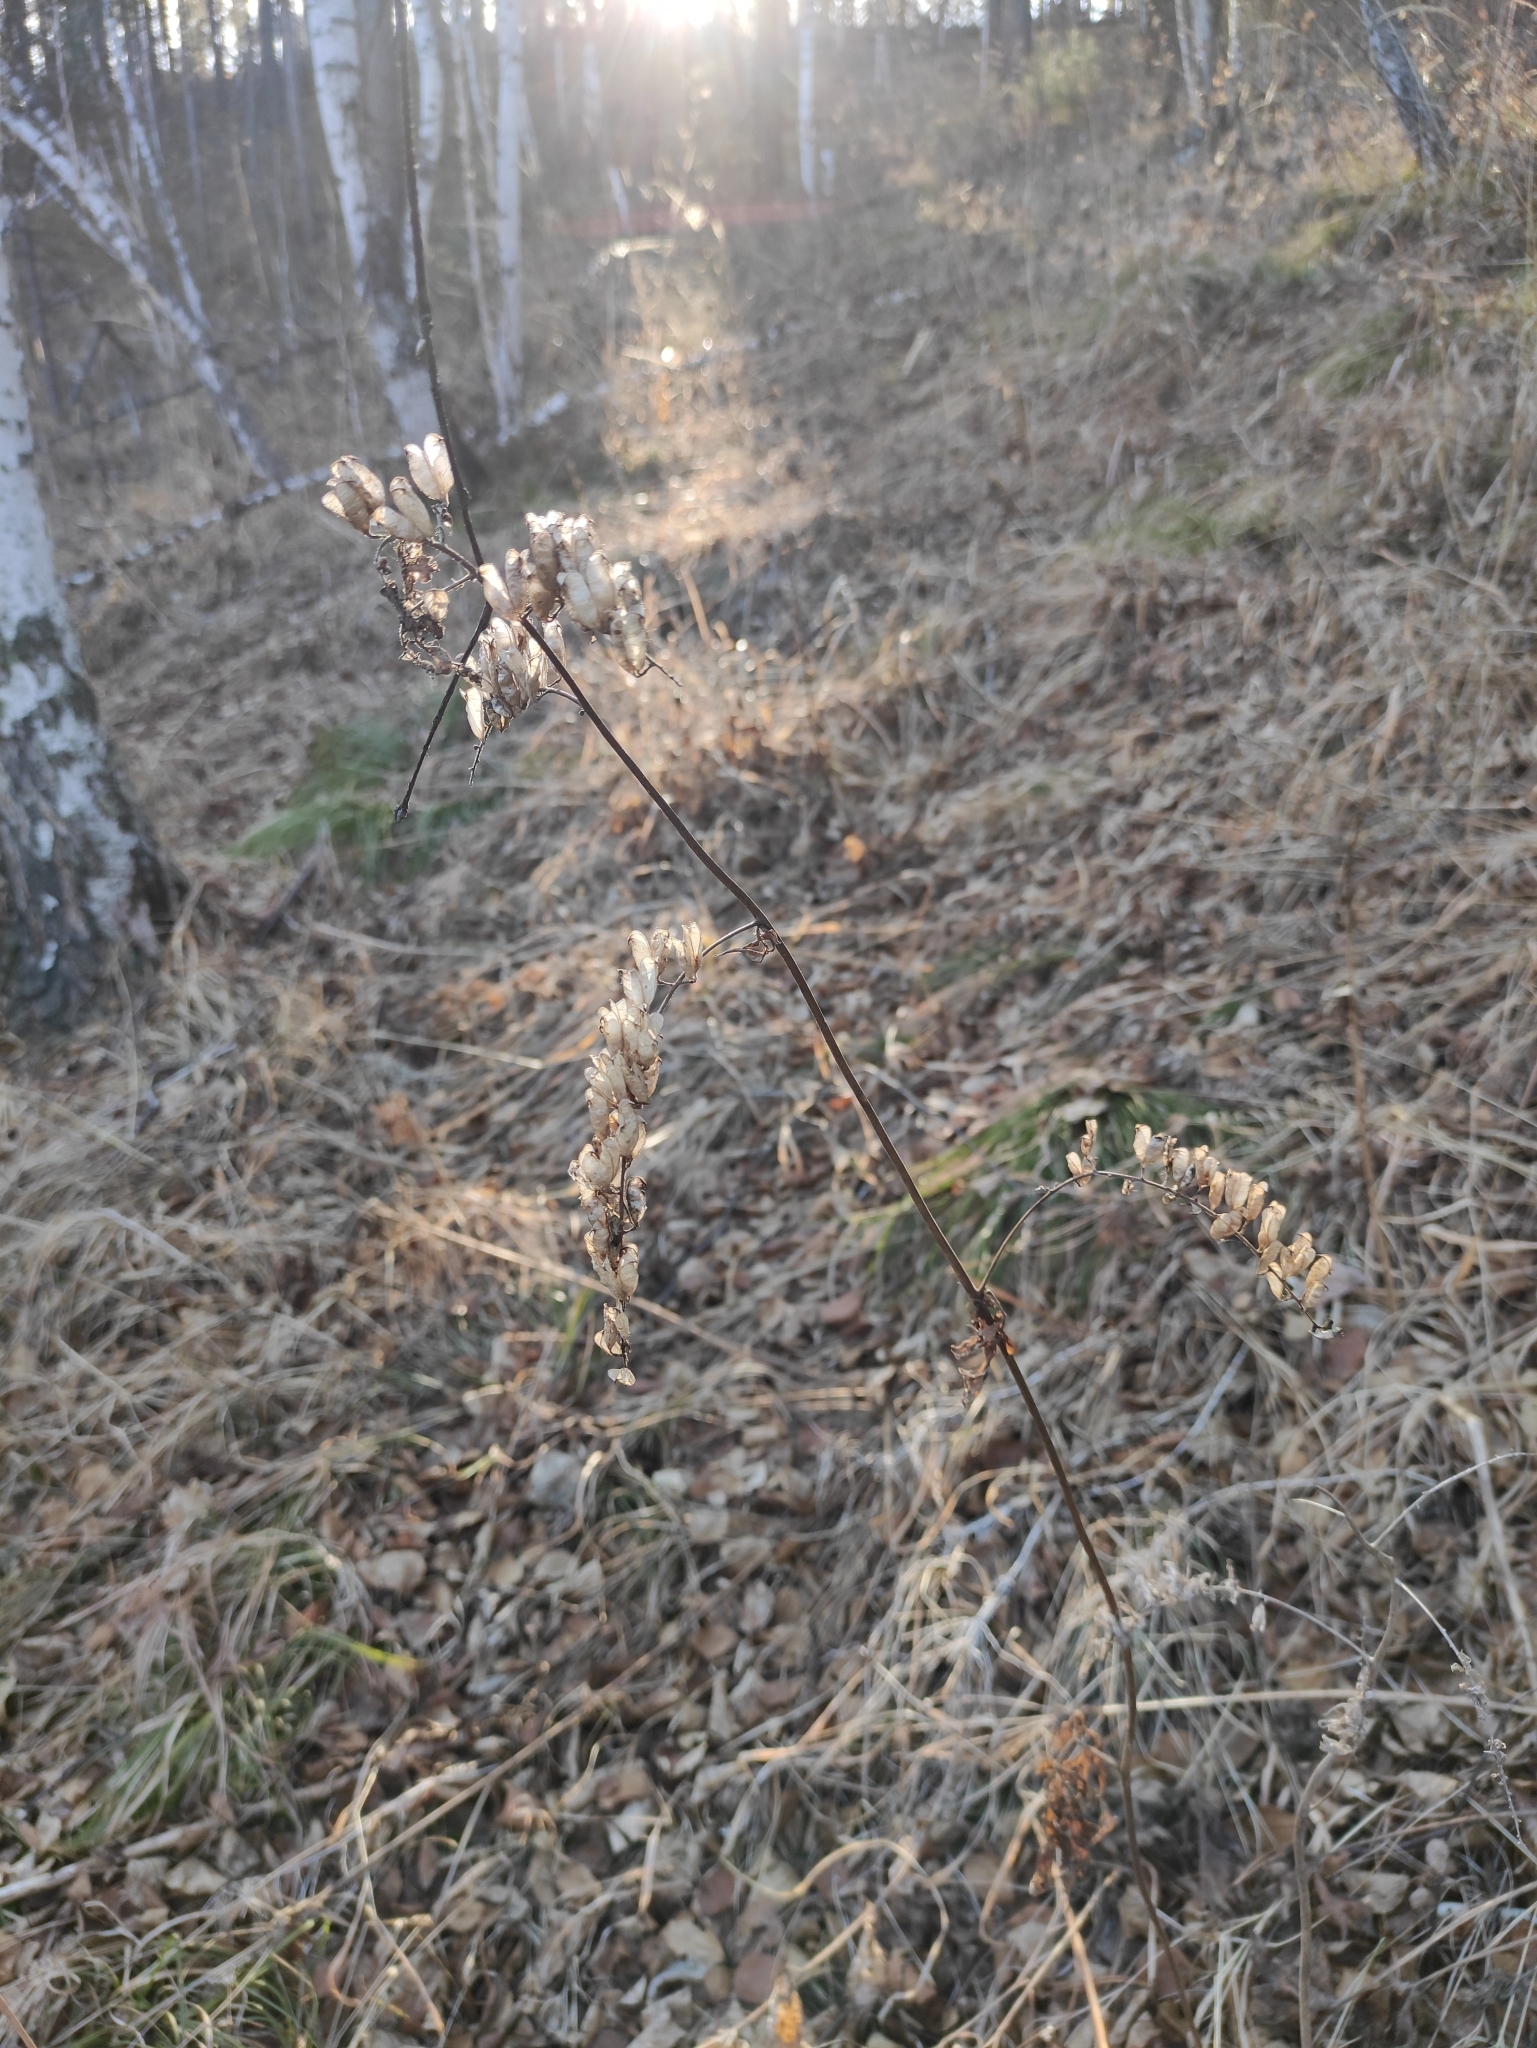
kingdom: Plantae
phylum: Tracheophyta
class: Magnoliopsida
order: Ranunculales
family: Ranunculaceae
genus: Actaea
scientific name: Actaea cimicifuga
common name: Chinese cimicifuga
